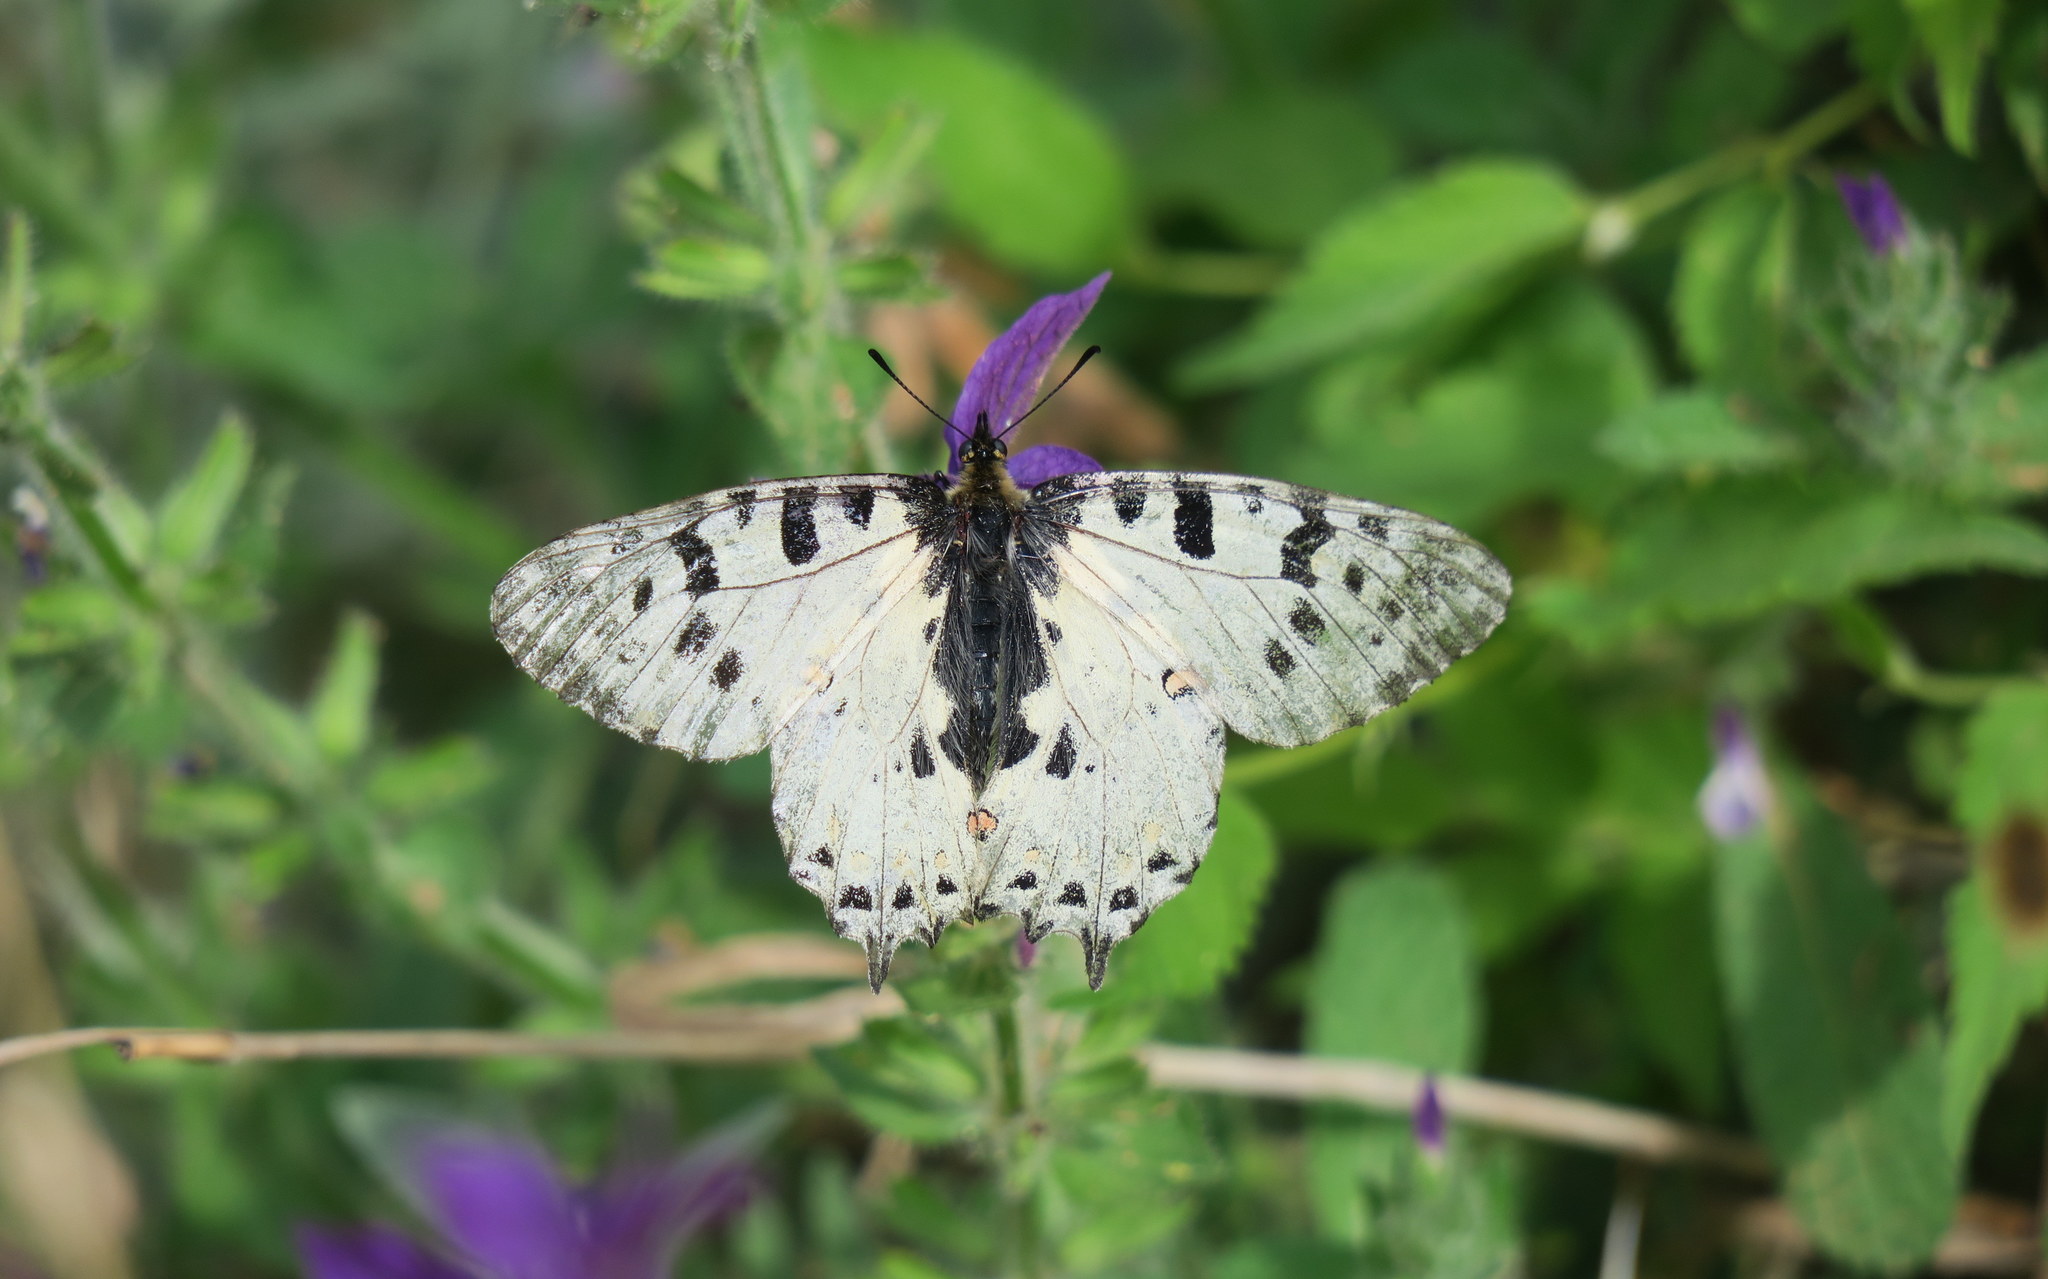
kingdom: Animalia
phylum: Arthropoda
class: Insecta
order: Lepidoptera
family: Papilionidae
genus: Zerynthia
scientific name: Zerynthia cerisy
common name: Eastern festoon
